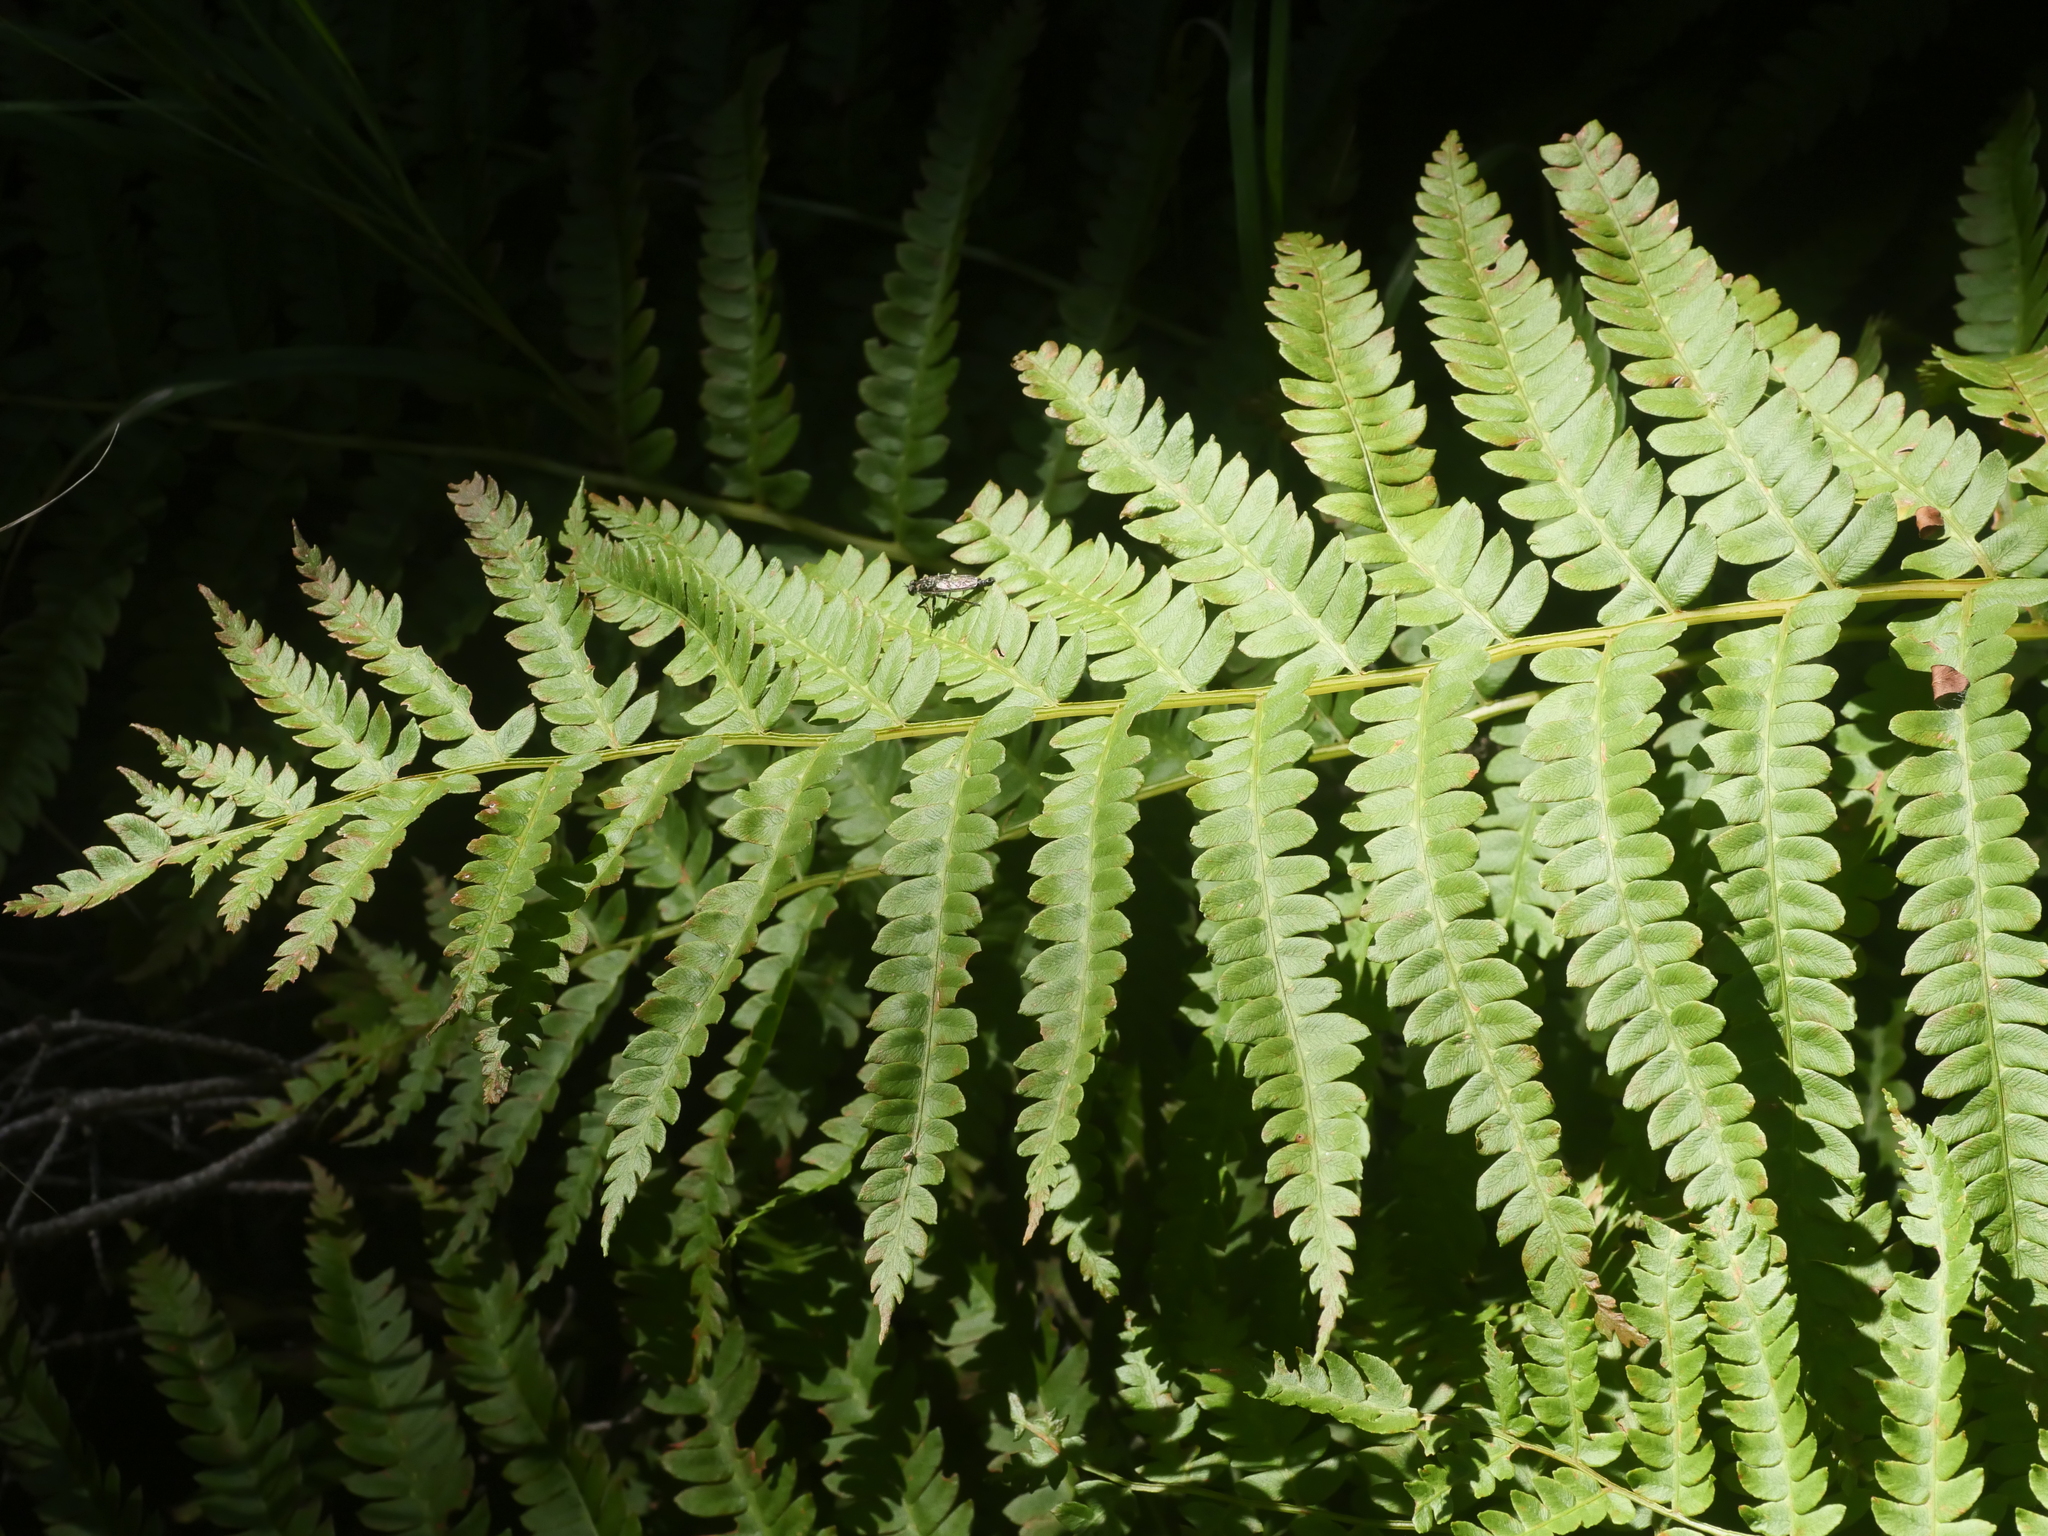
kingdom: Plantae
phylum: Tracheophyta
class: Polypodiopsida
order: Osmundales
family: Osmundaceae
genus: Osmundastrum
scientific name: Osmundastrum cinnamomeum
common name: Cinnamon fern
